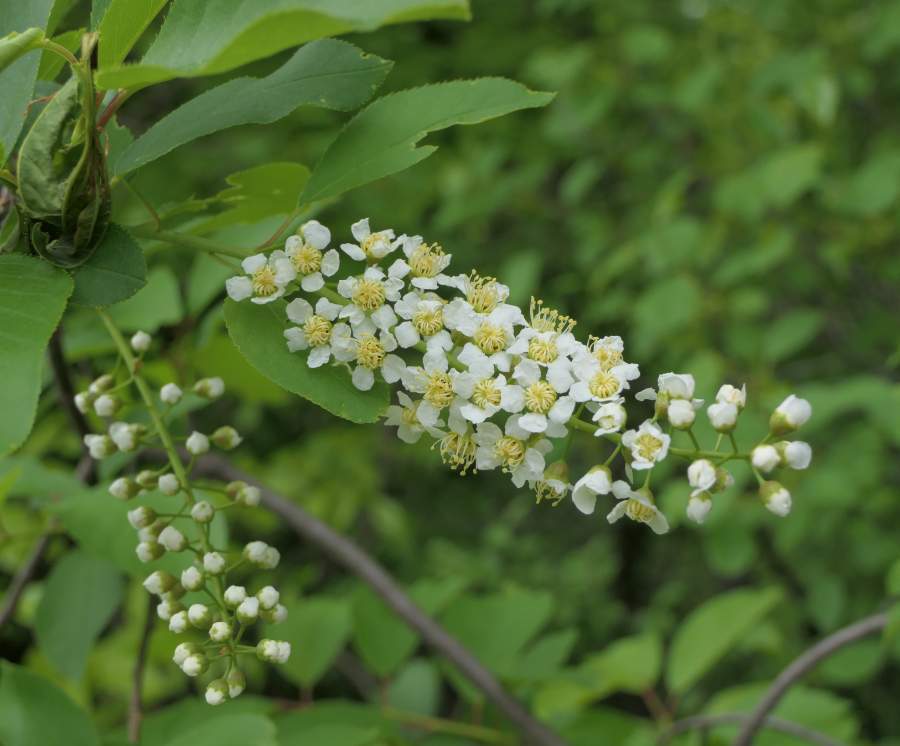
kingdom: Plantae
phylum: Tracheophyta
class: Magnoliopsida
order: Rosales
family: Rosaceae
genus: Prunus
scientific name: Prunus virginiana
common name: Chokecherry
